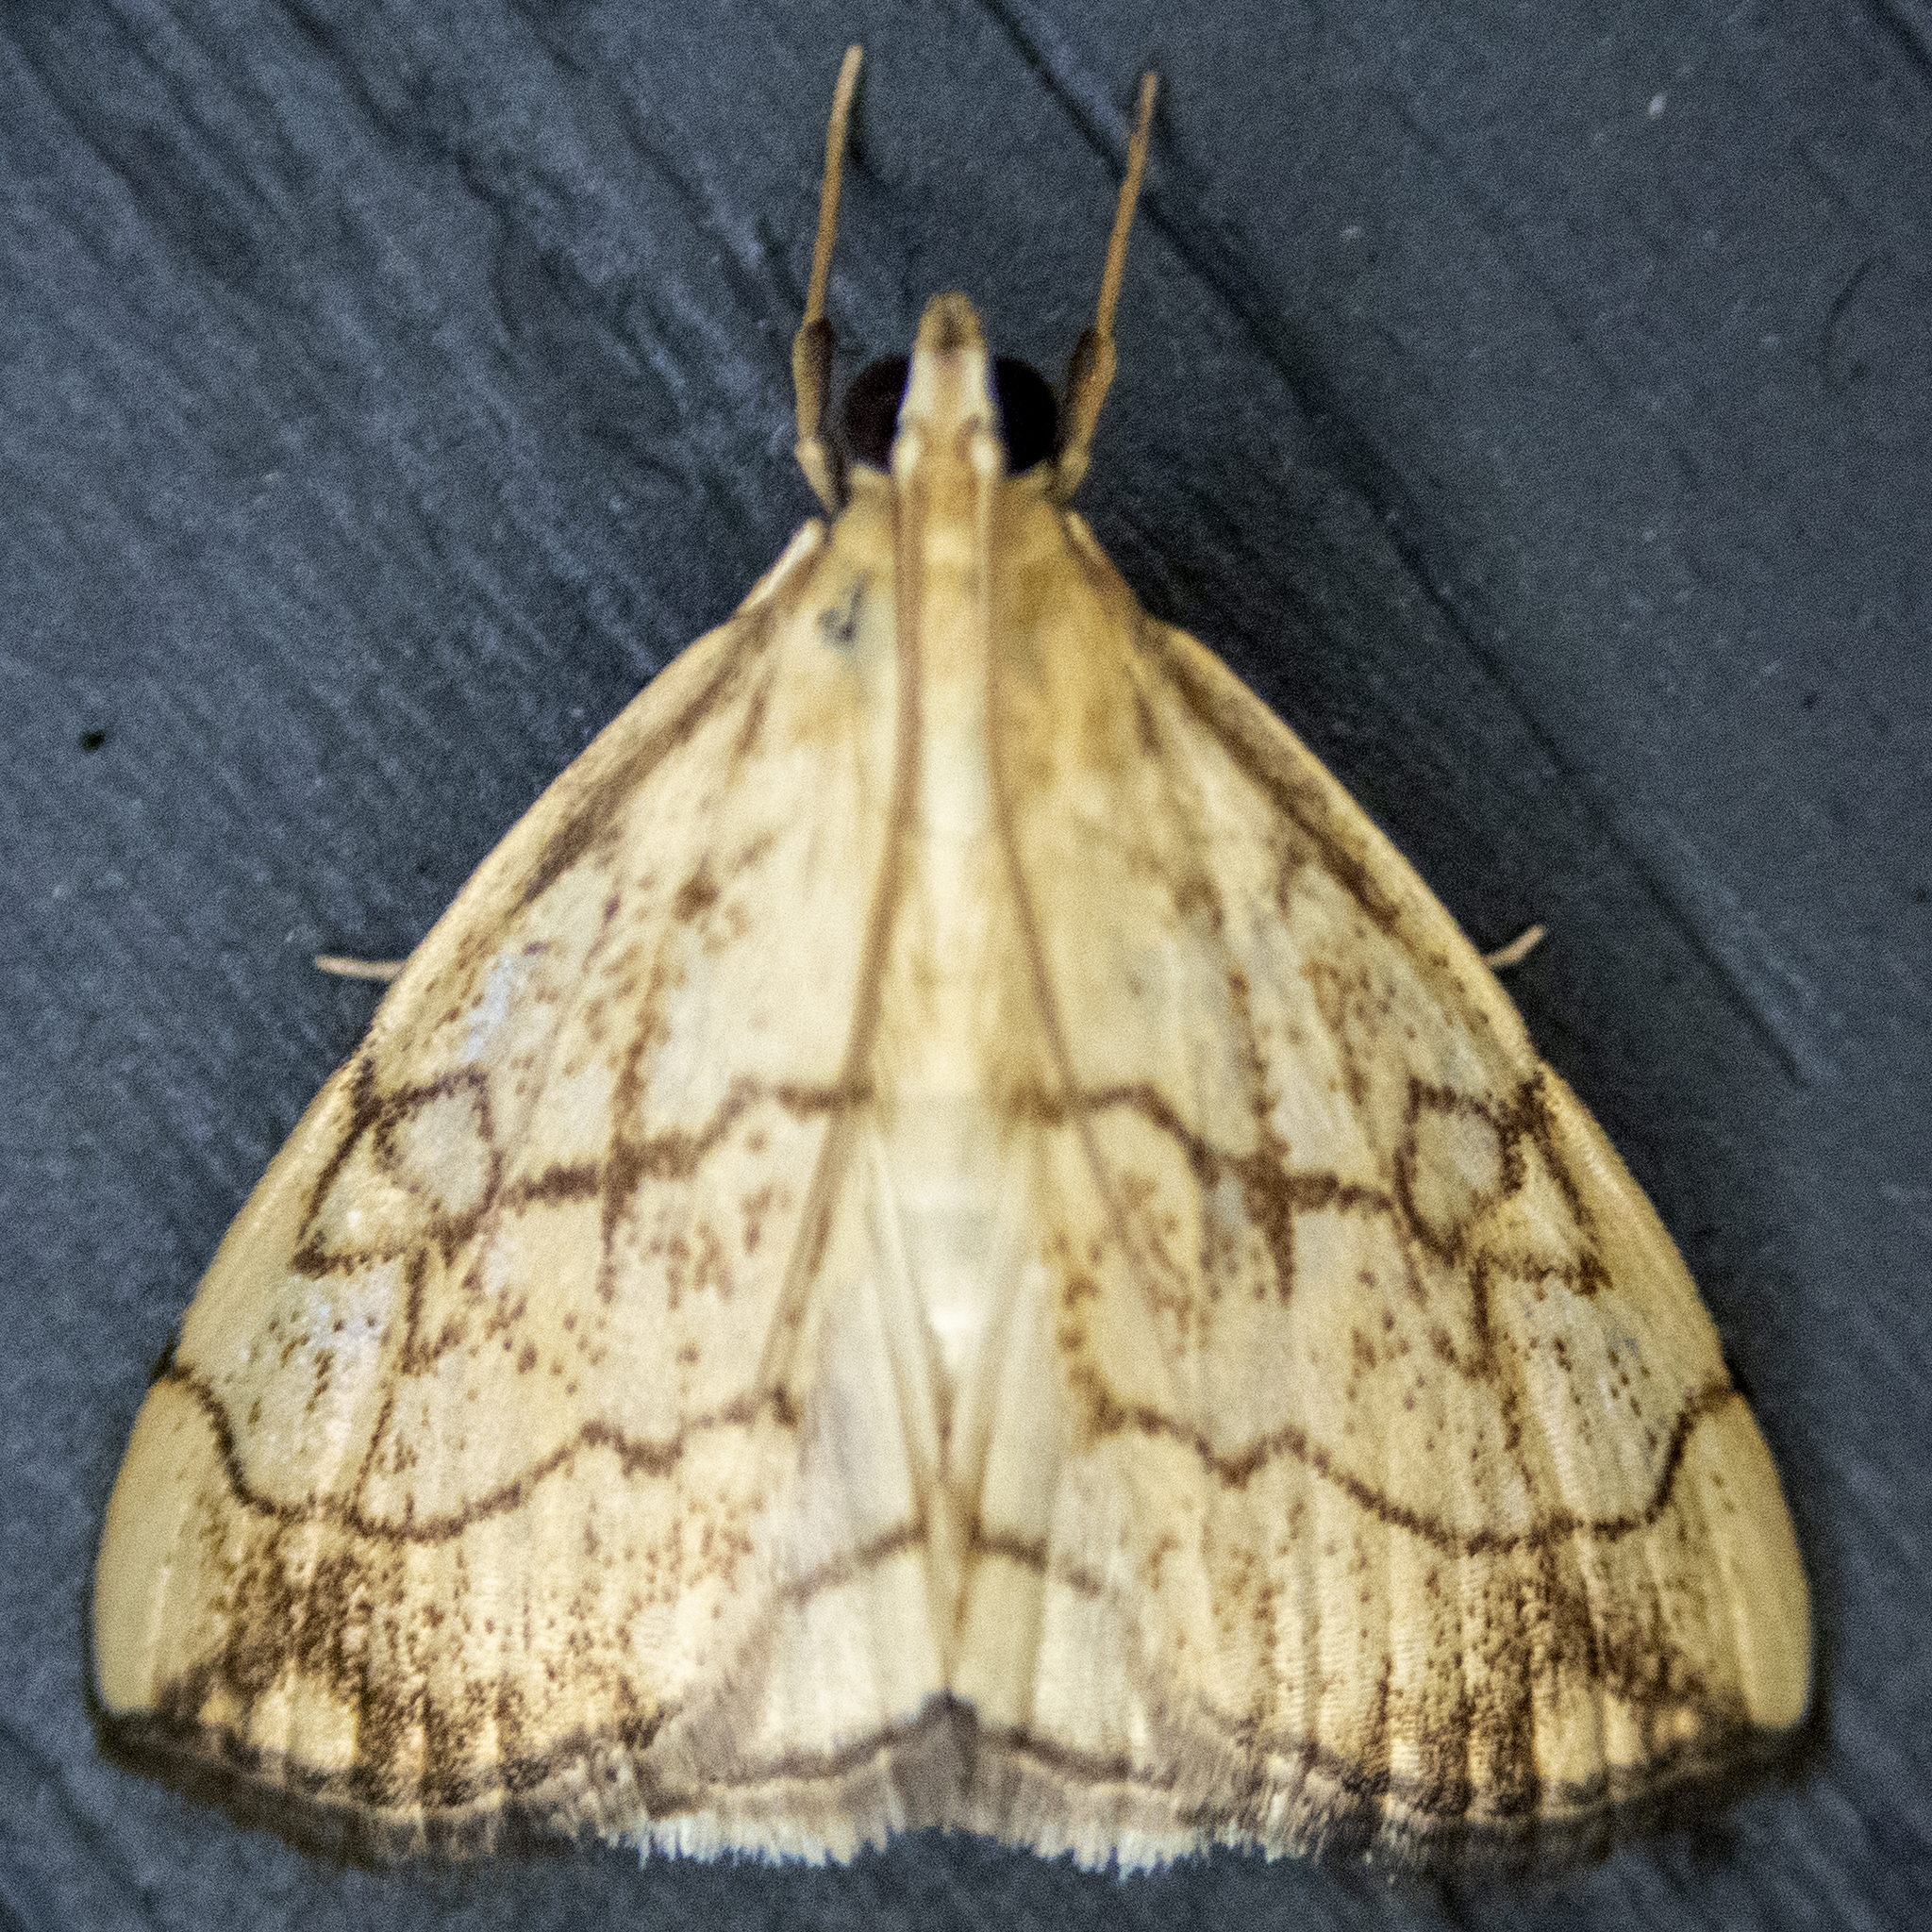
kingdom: Animalia
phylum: Arthropoda
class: Insecta
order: Lepidoptera
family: Crambidae
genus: Evergestis
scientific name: Evergestis pallidata
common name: Chequered pearl
